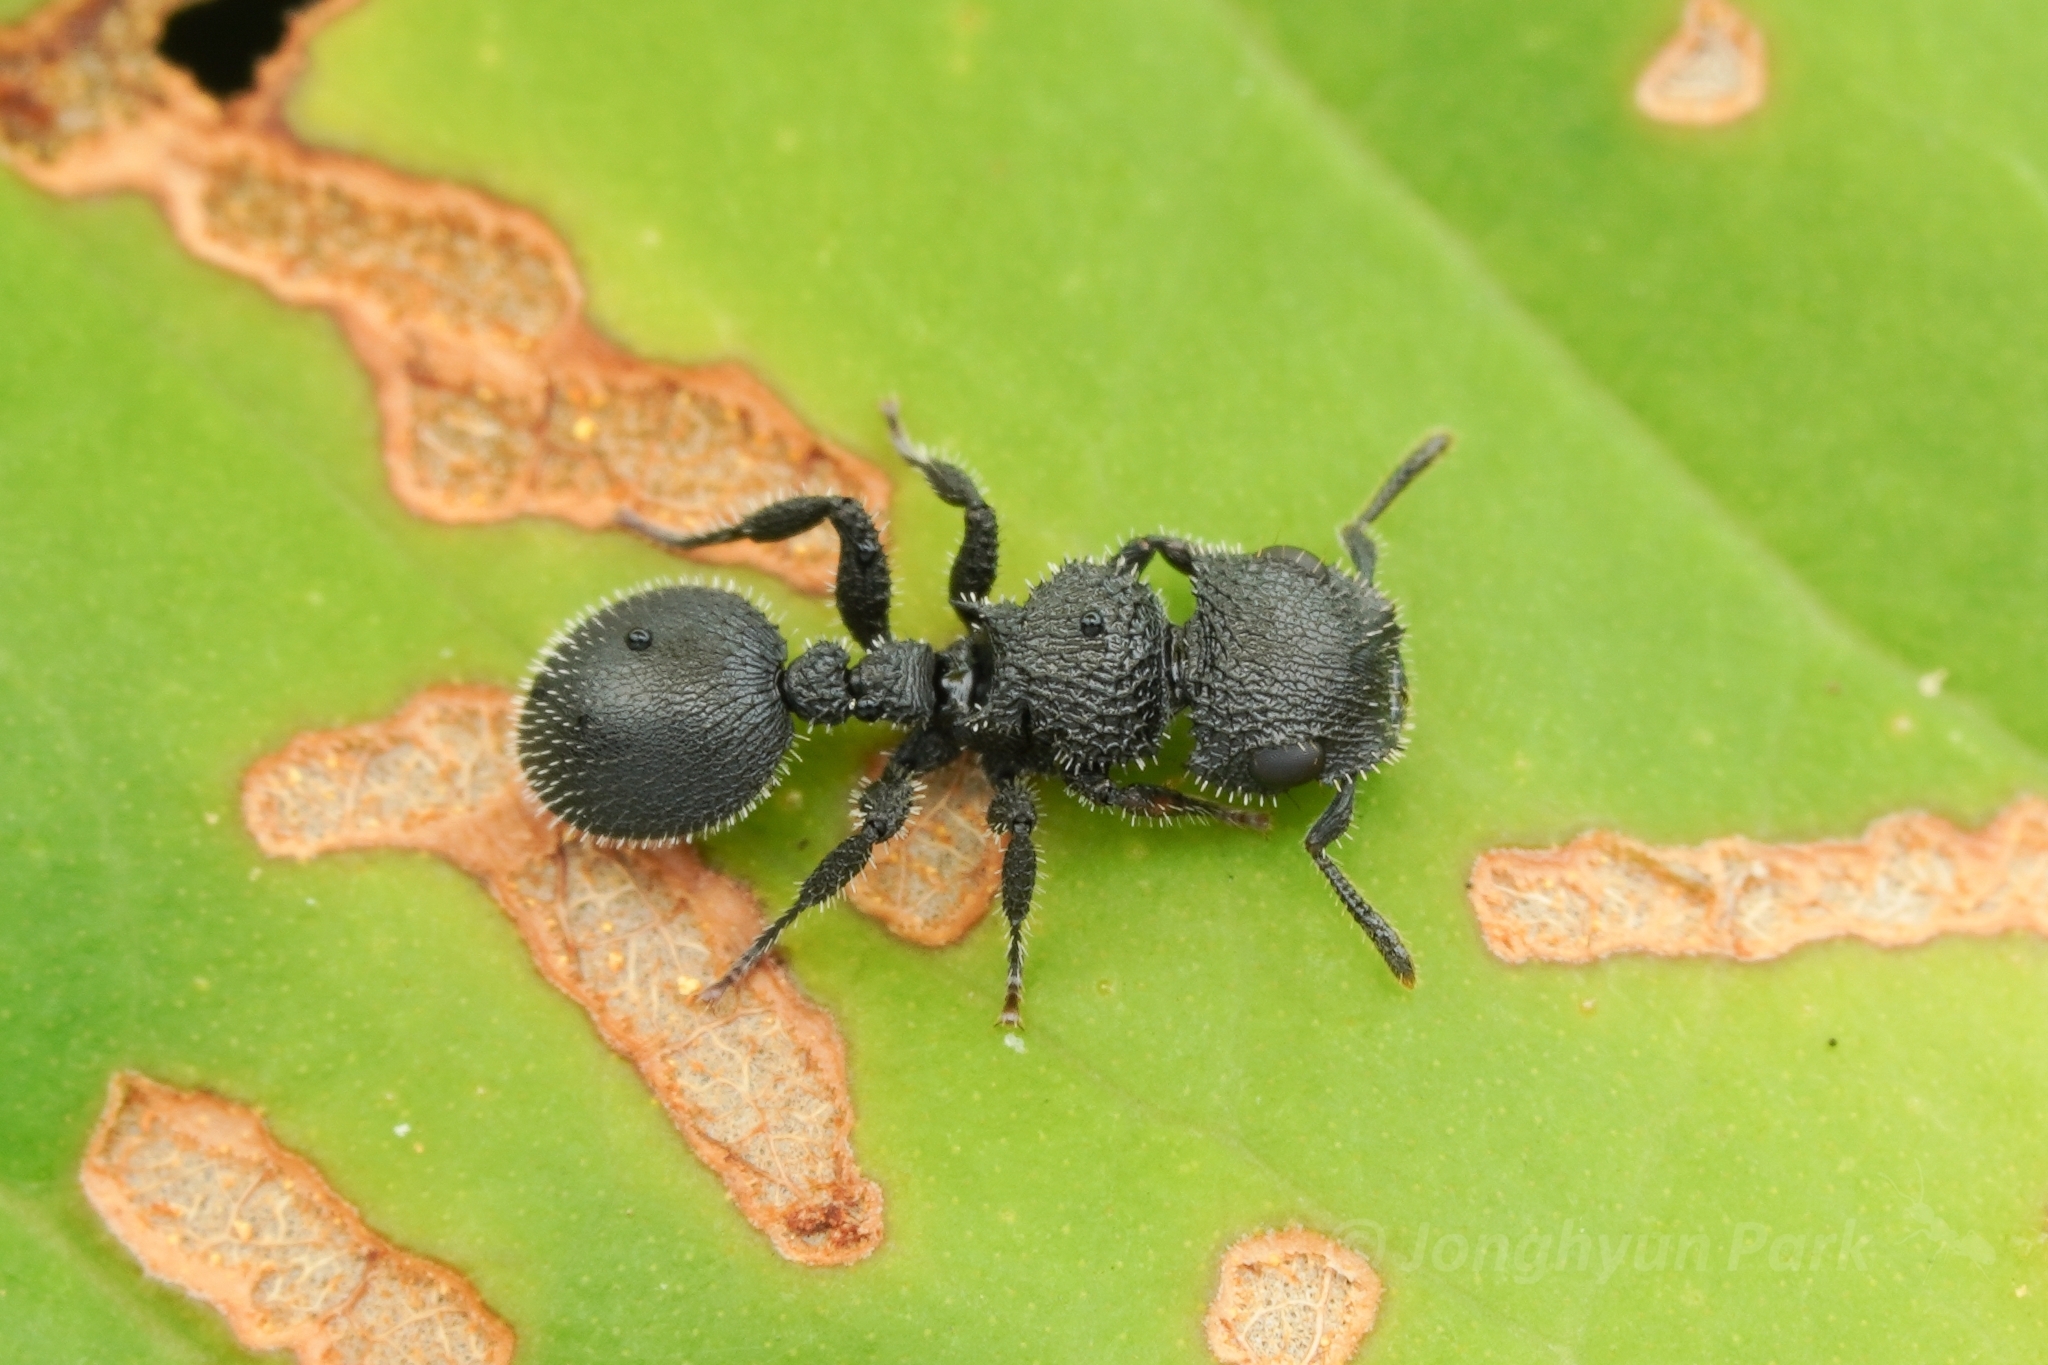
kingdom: Animalia
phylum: Arthropoda
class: Insecta
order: Hymenoptera
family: Formicidae
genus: Cataulacus
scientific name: Cataulacus hispidulus
